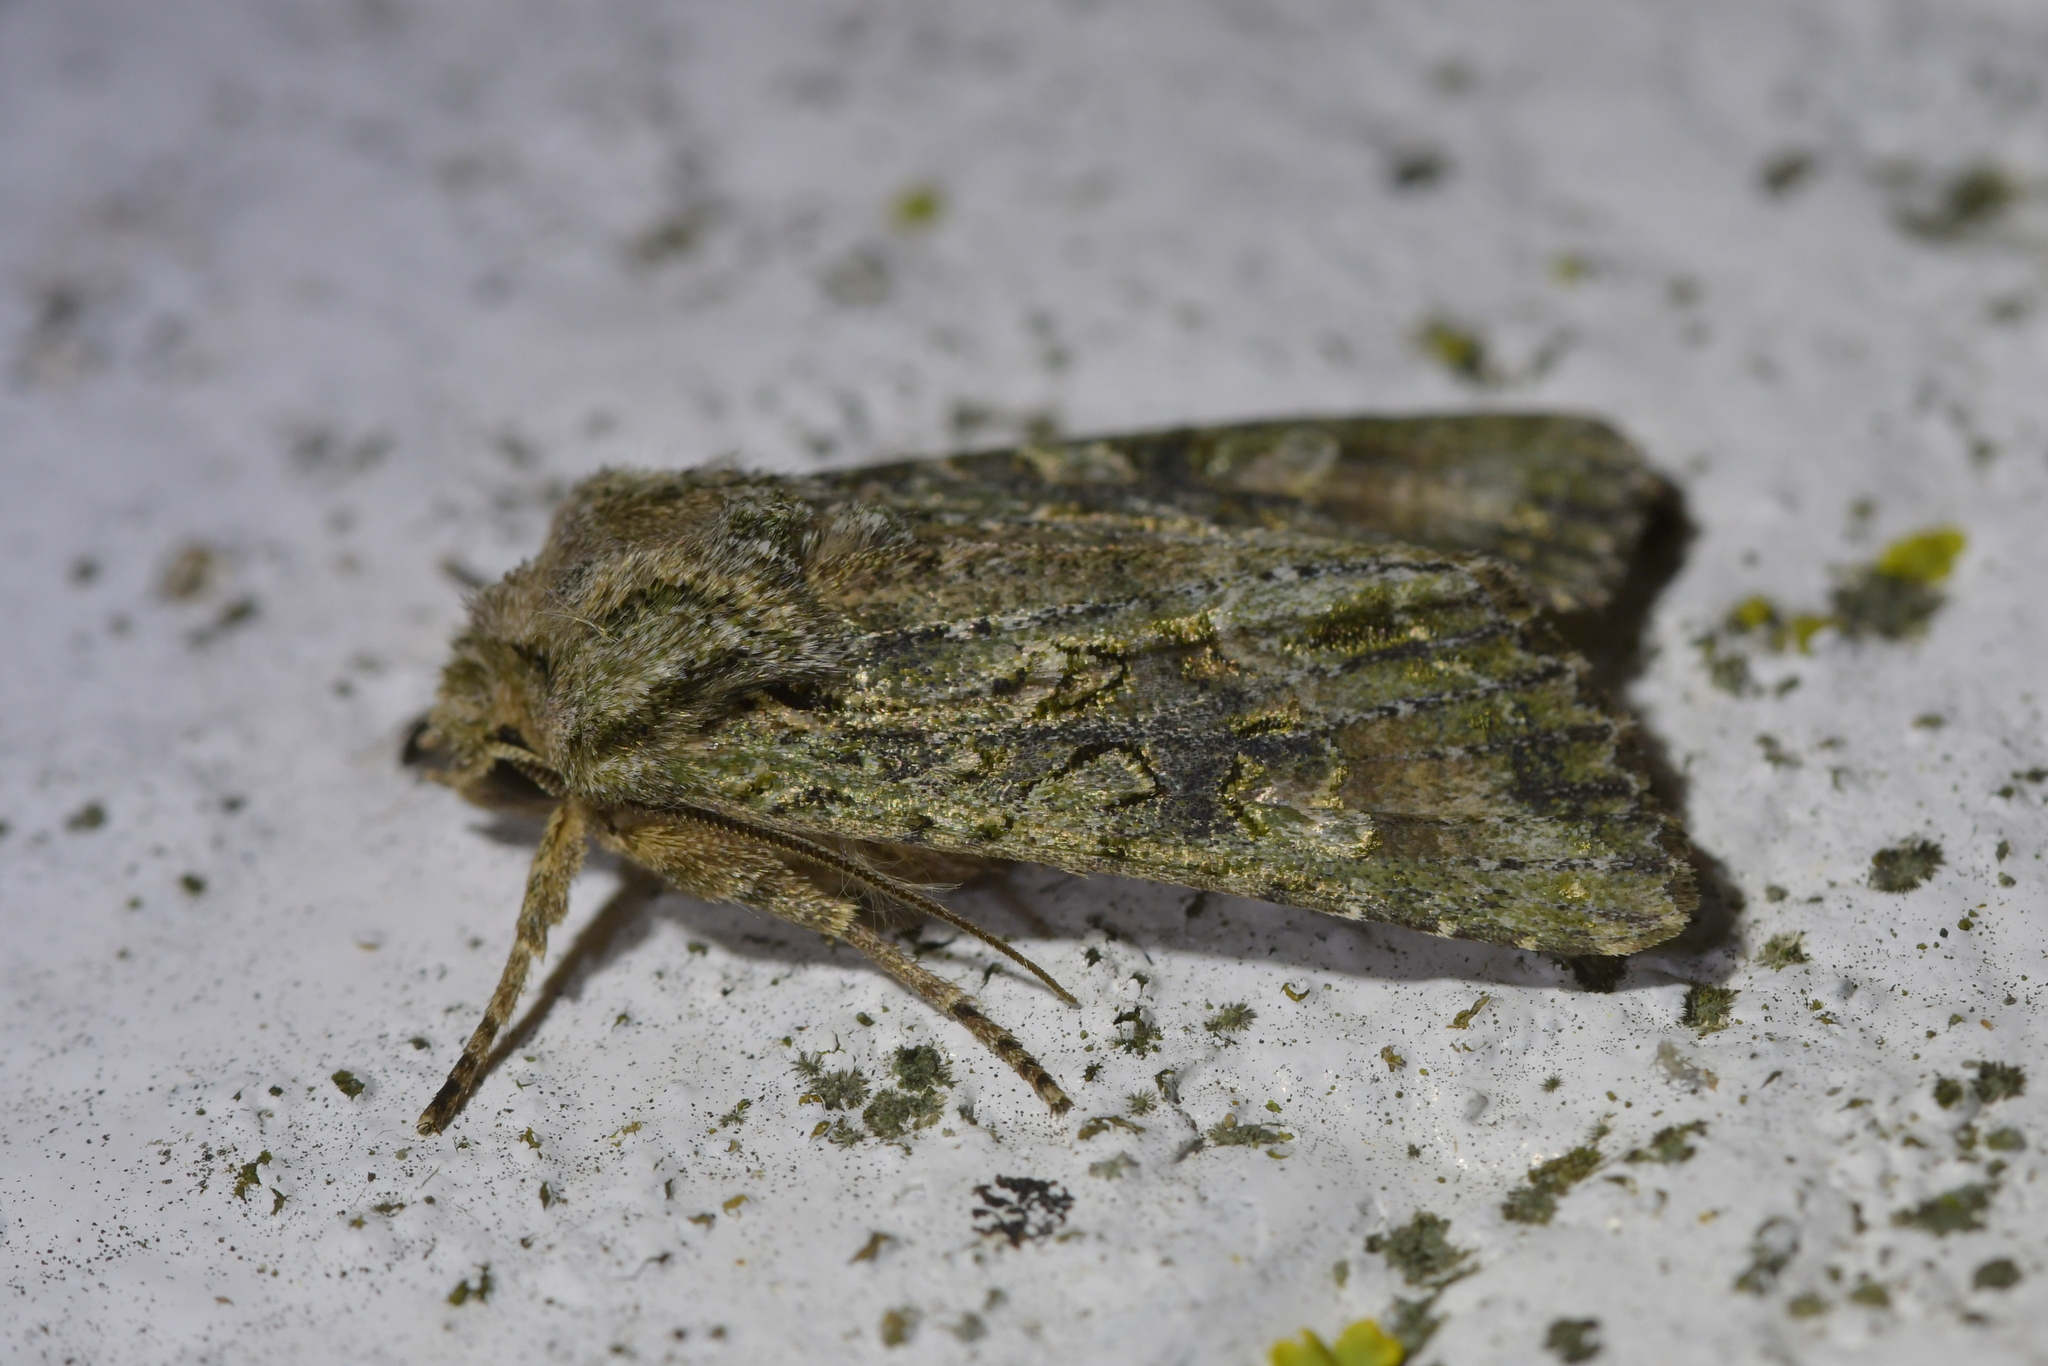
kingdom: Animalia
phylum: Arthropoda
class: Insecta
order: Lepidoptera
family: Noctuidae
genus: Ichneutica
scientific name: Ichneutica mutans
